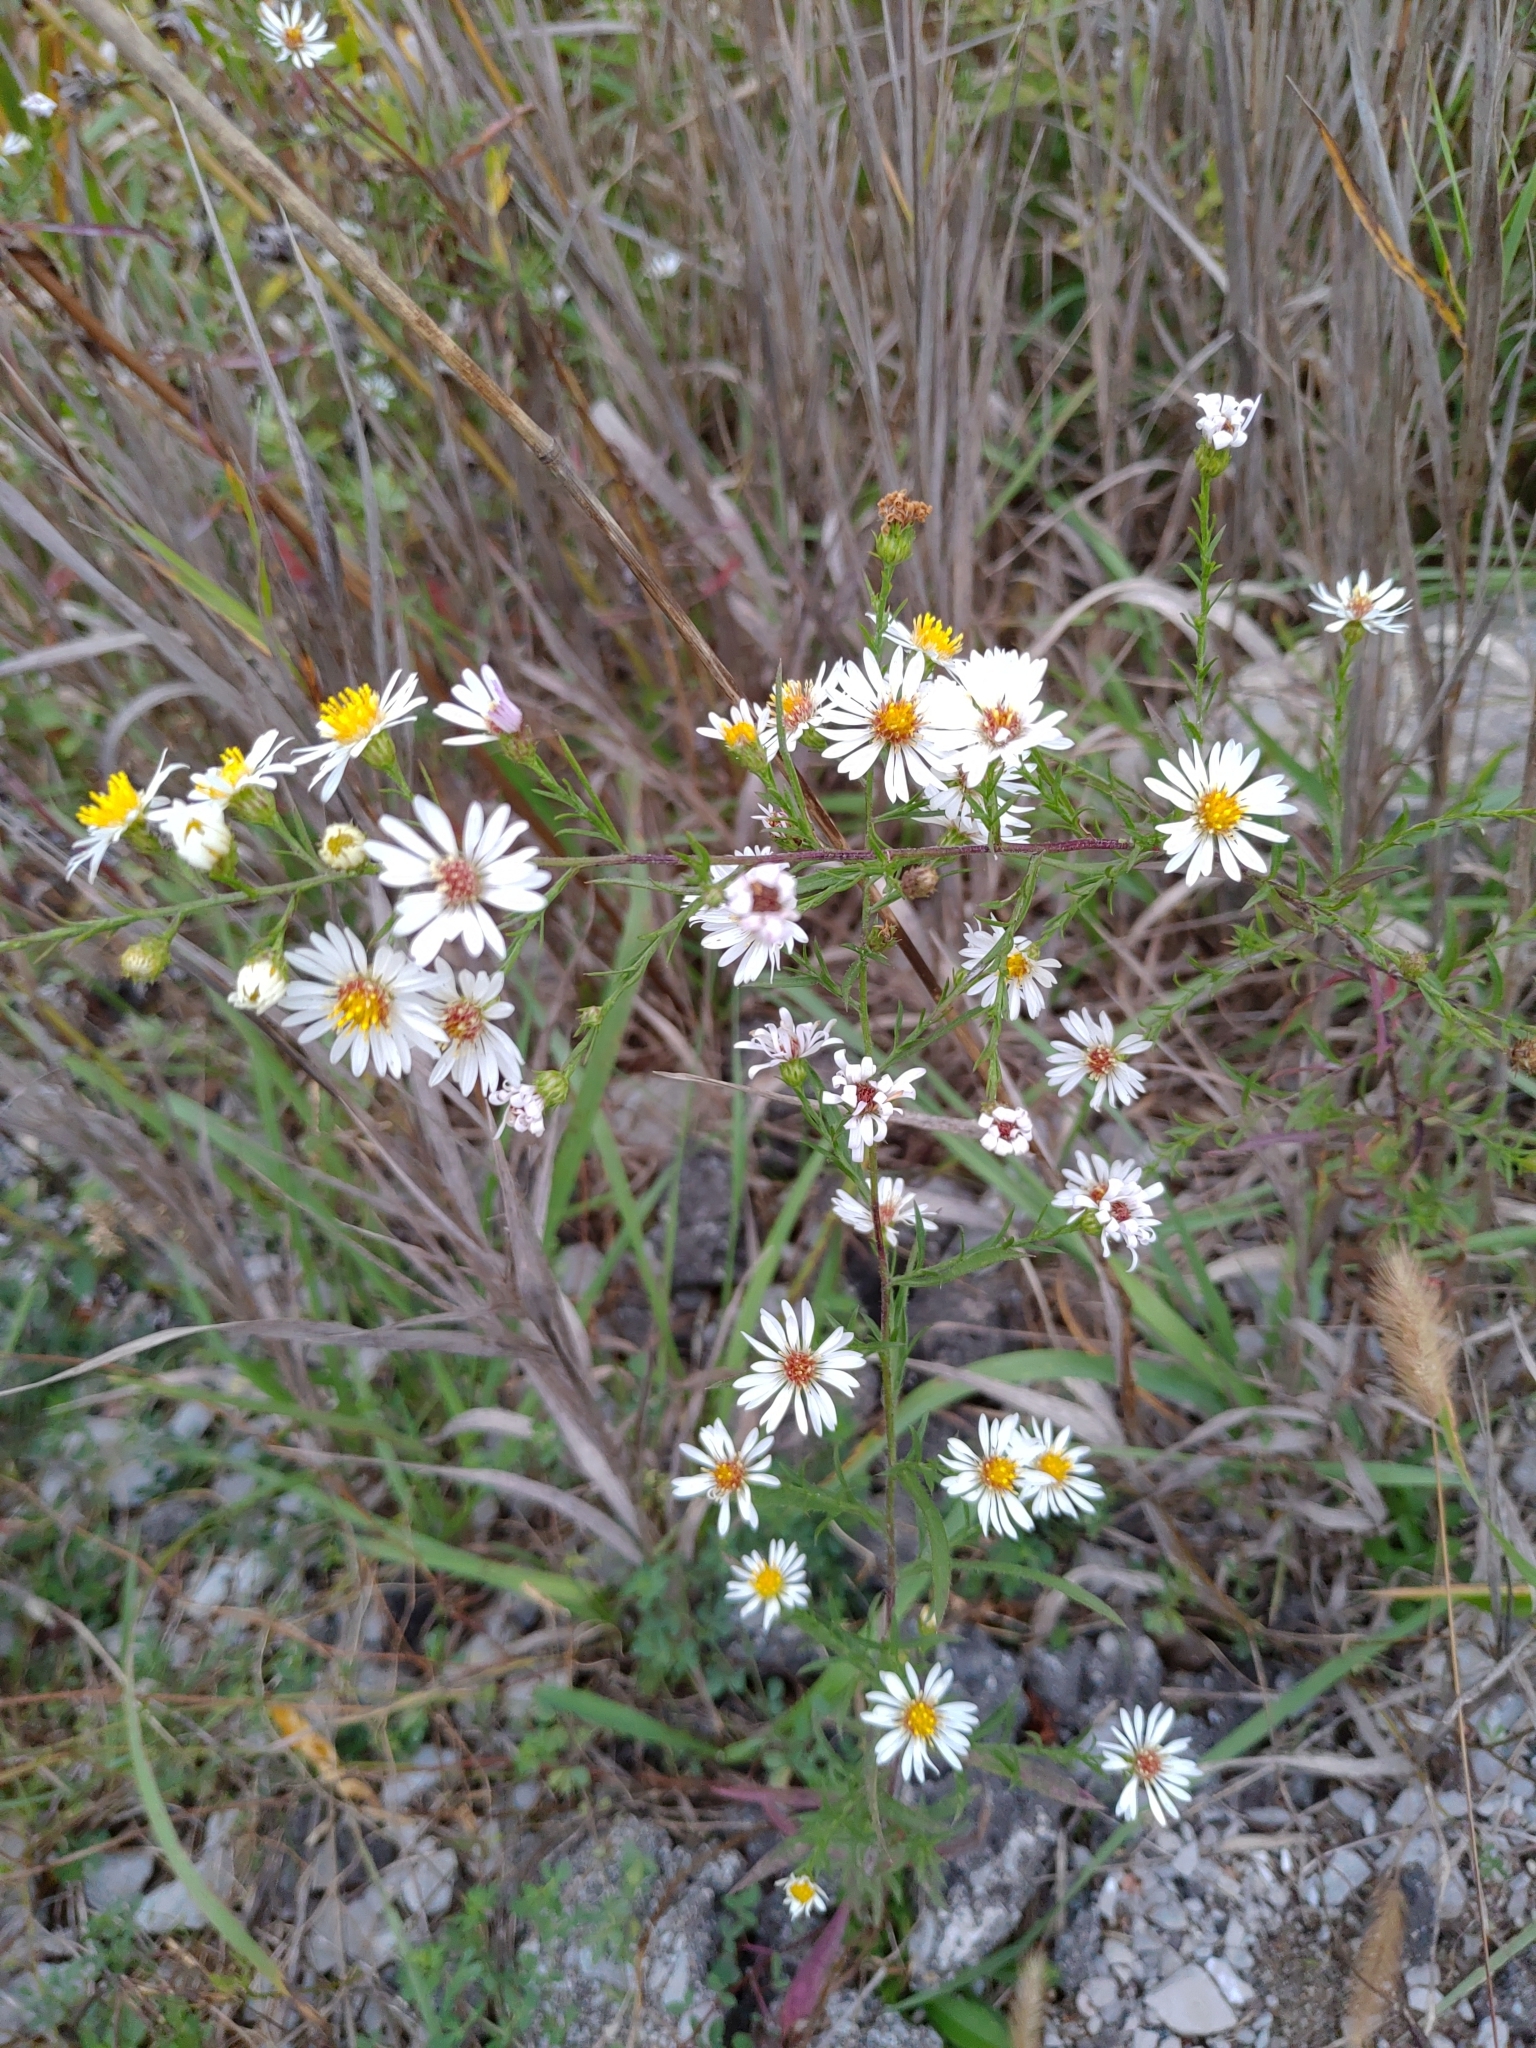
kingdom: Plantae
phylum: Tracheophyta
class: Magnoliopsida
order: Asterales
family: Asteraceae
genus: Symphyotrichum
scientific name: Symphyotrichum pilosum
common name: Awl aster
